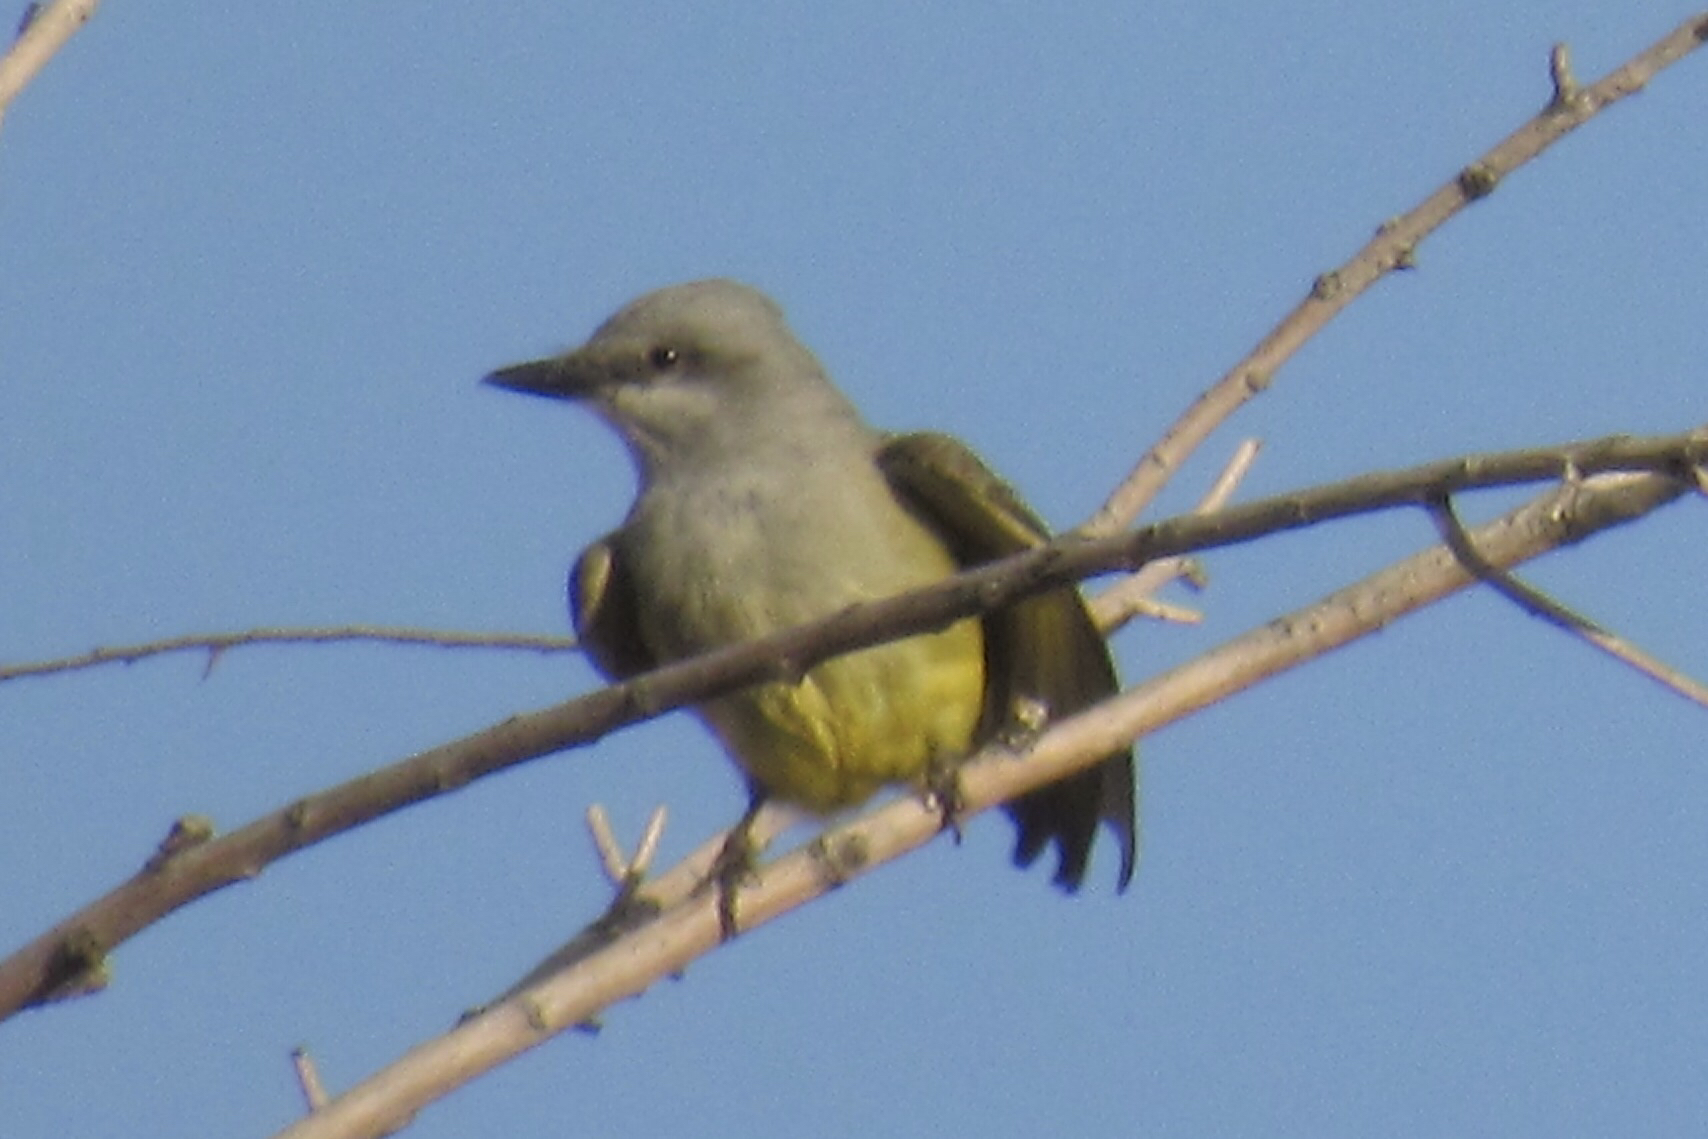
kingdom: Animalia
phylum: Chordata
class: Aves
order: Passeriformes
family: Tyrannidae
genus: Tyrannus
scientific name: Tyrannus vociferans
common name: Cassin's kingbird
